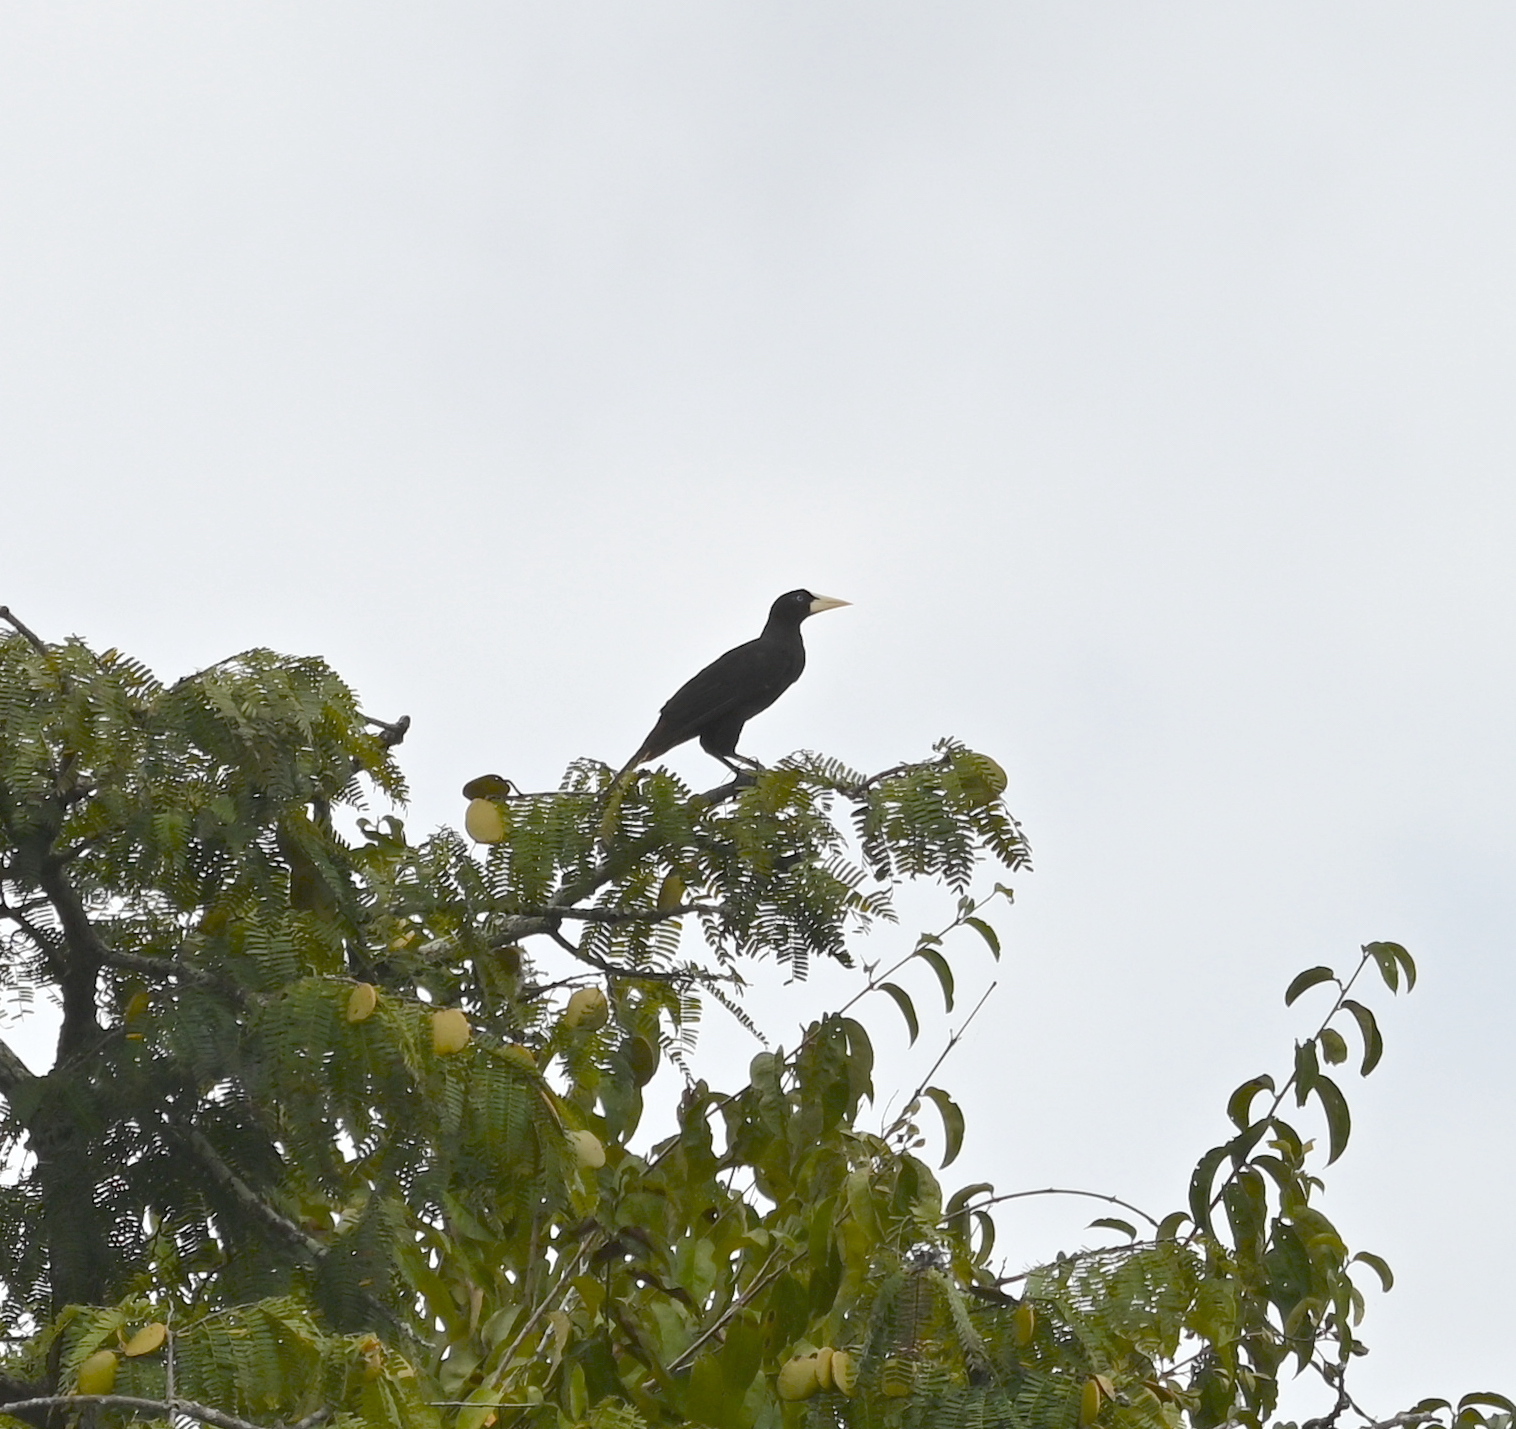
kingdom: Animalia
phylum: Chordata
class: Aves
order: Passeriformes
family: Icteridae
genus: Psarocolius
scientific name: Psarocolius decumanus
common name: Crested oropendola
